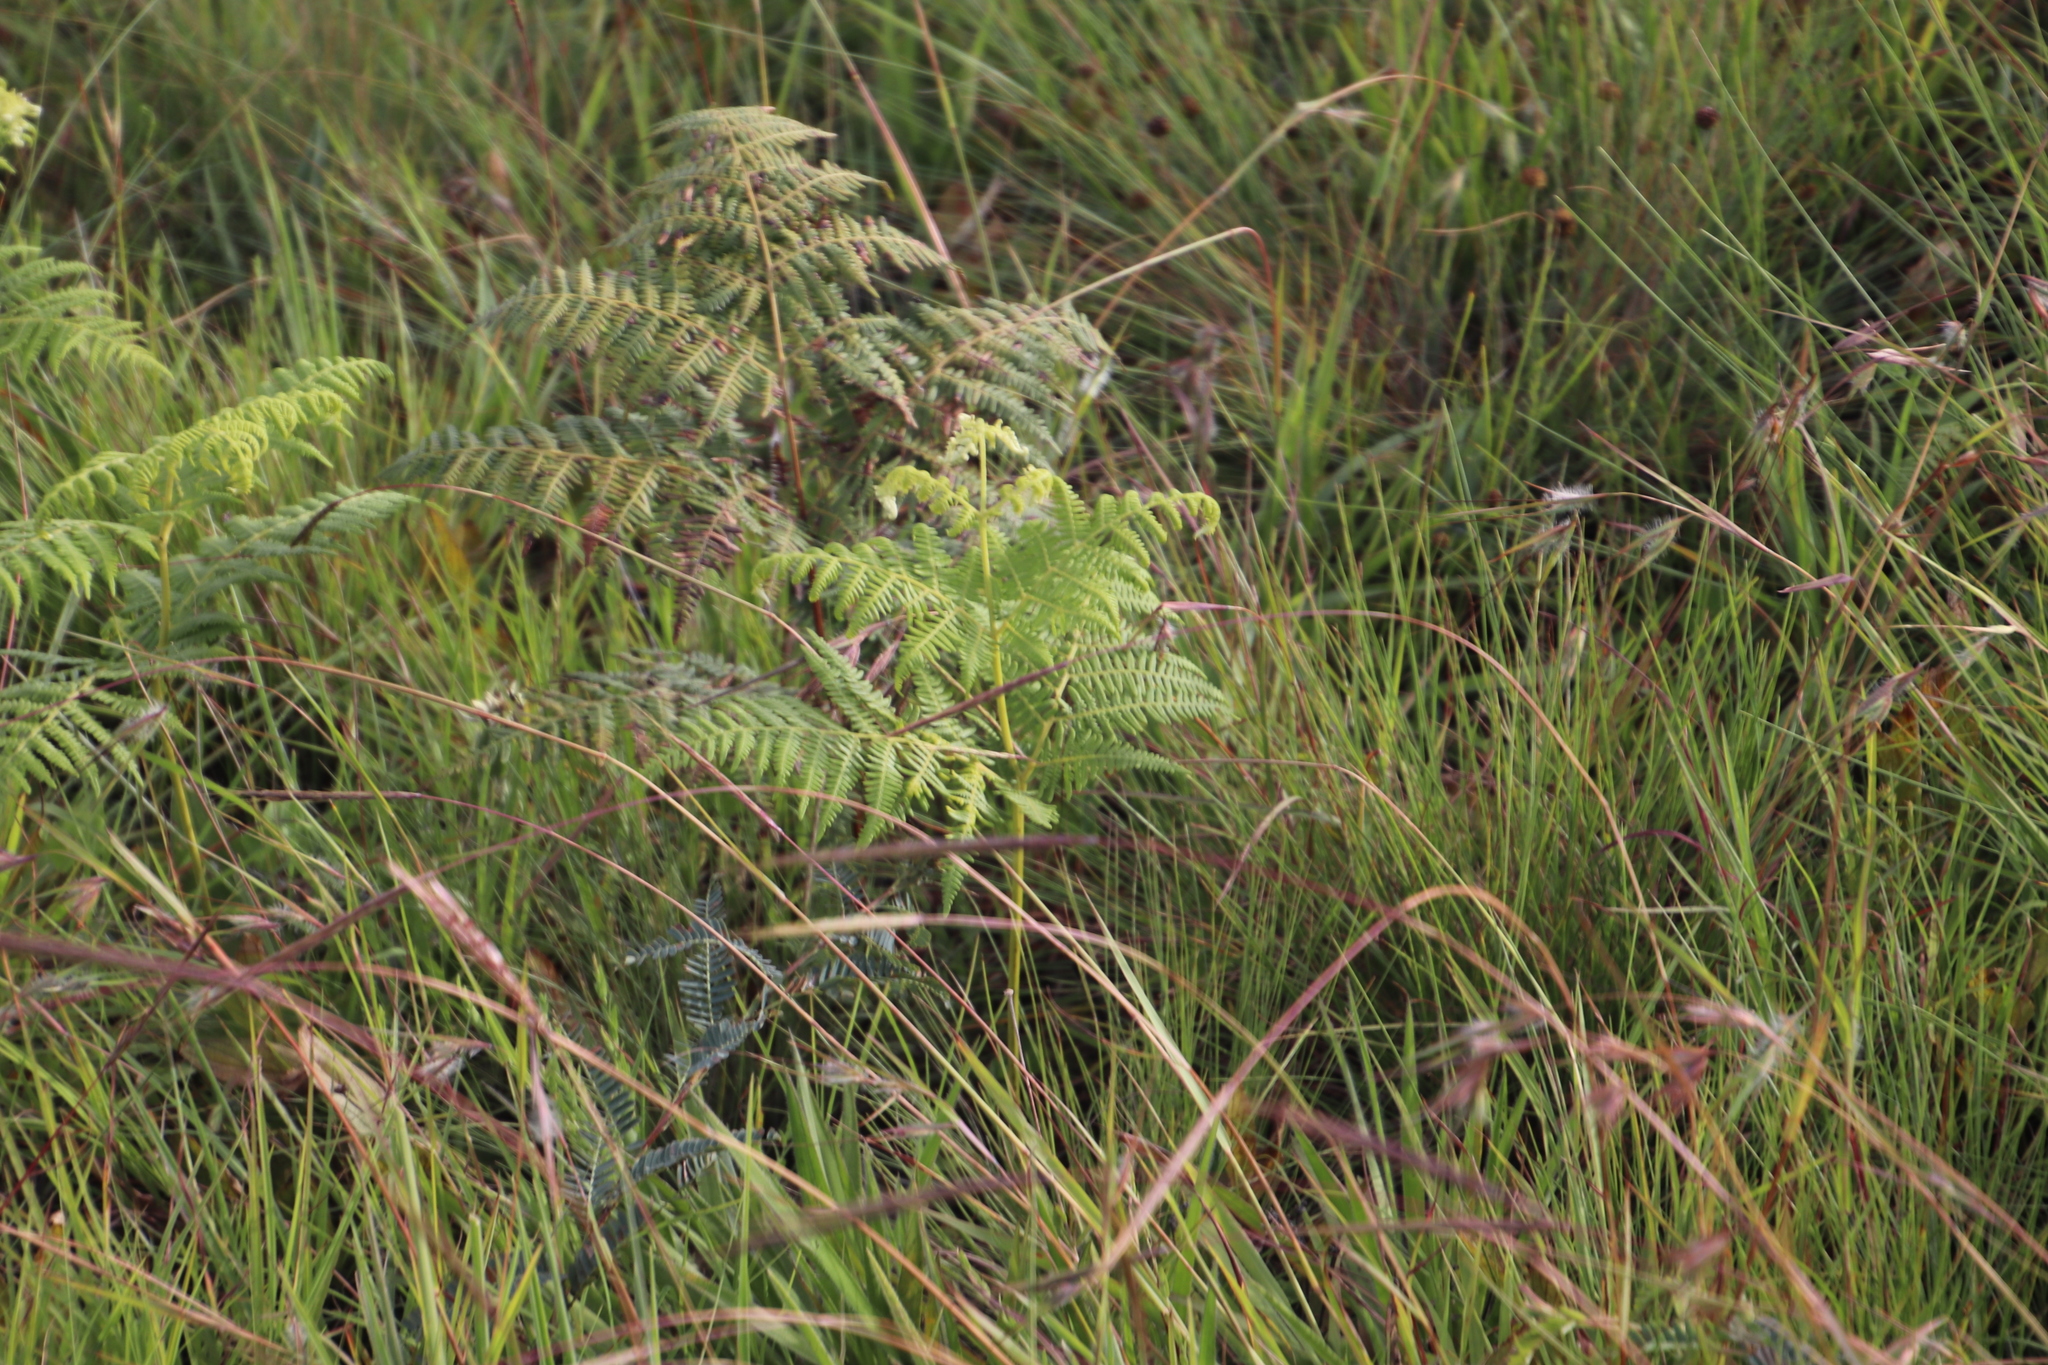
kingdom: Plantae
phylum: Tracheophyta
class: Polypodiopsida
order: Polypodiales
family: Dennstaedtiaceae
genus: Pteridium
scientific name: Pteridium aquilinum
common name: Bracken
